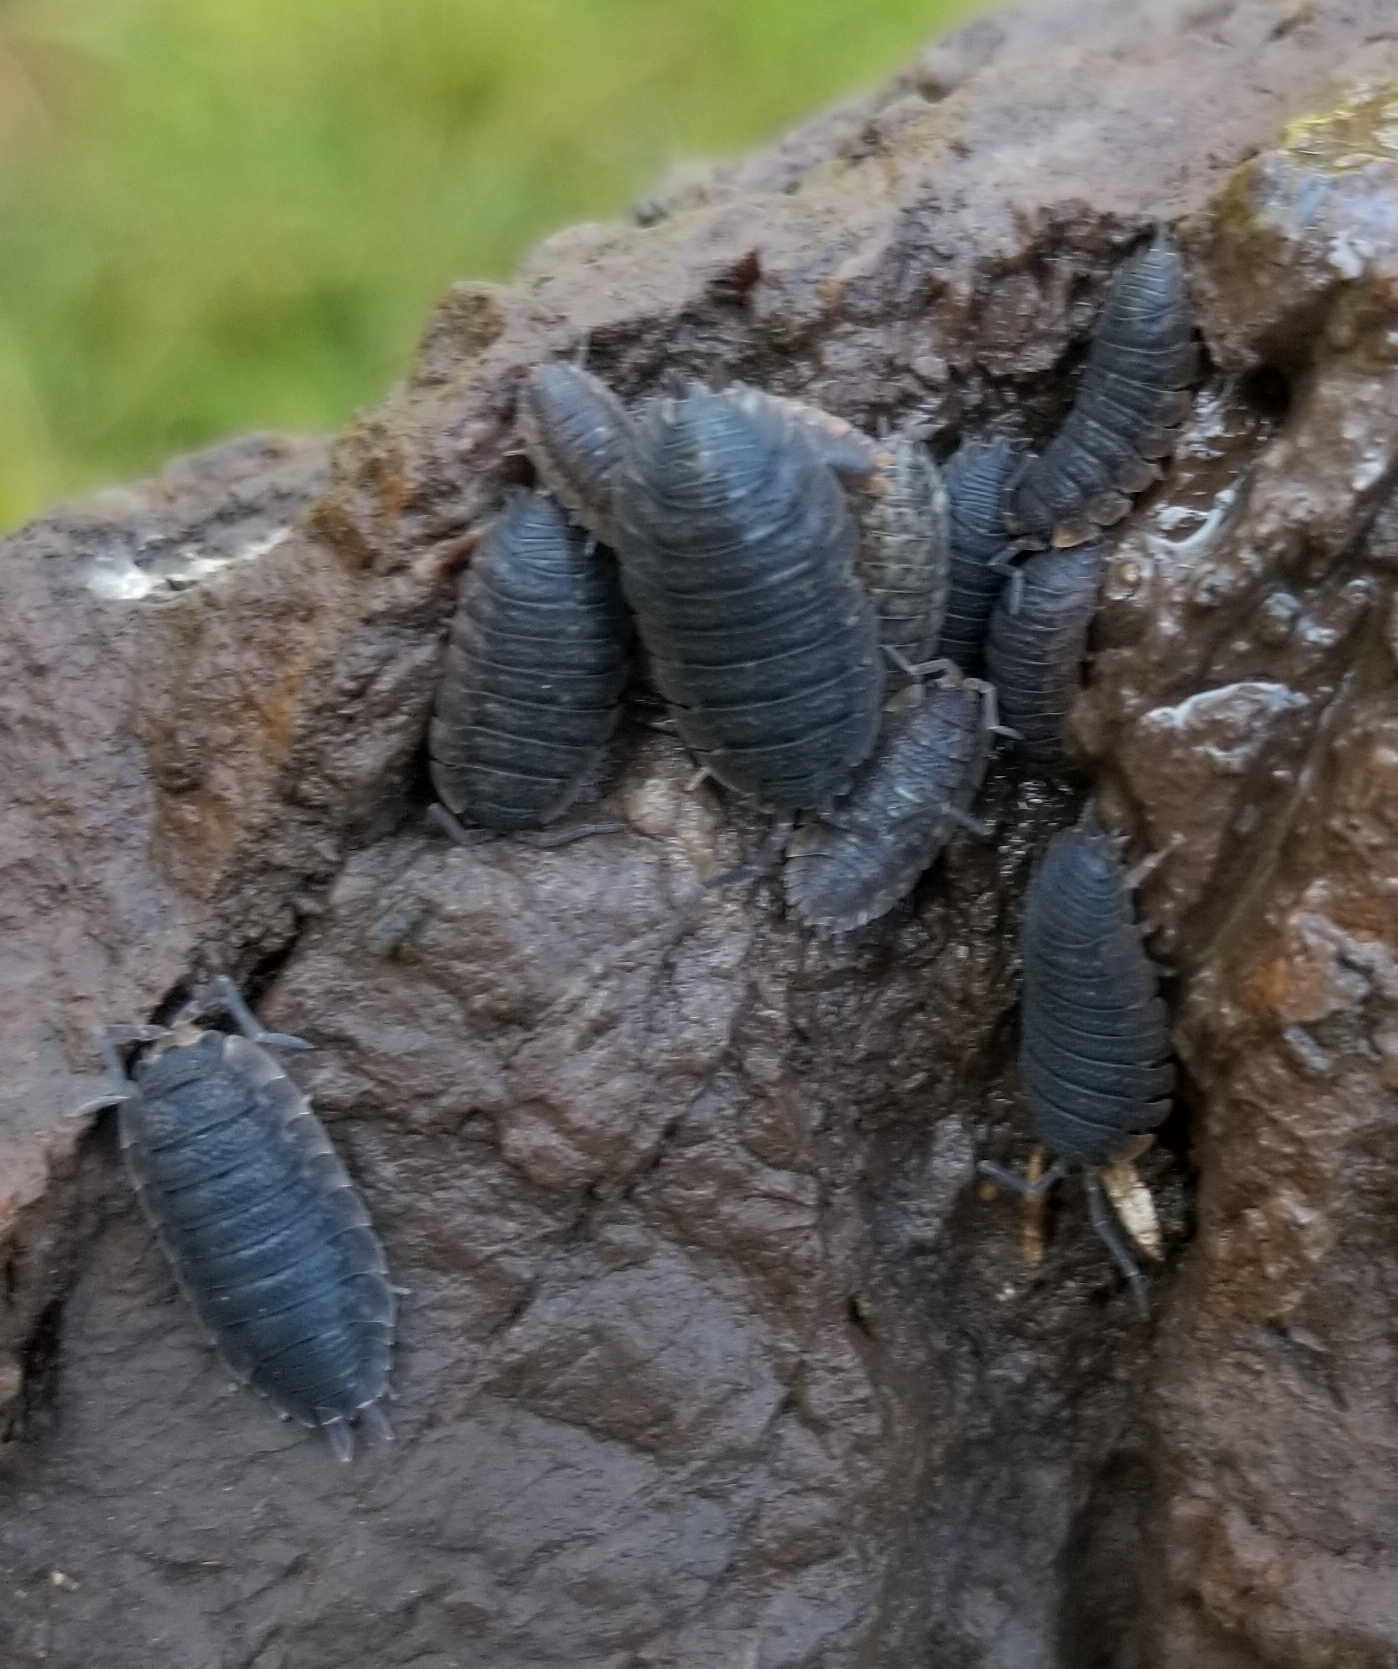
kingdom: Animalia
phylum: Arthropoda
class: Malacostraca
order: Isopoda
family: Porcellionidae
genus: Porcellio
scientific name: Porcellio scaber
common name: Common rough woodlouse
